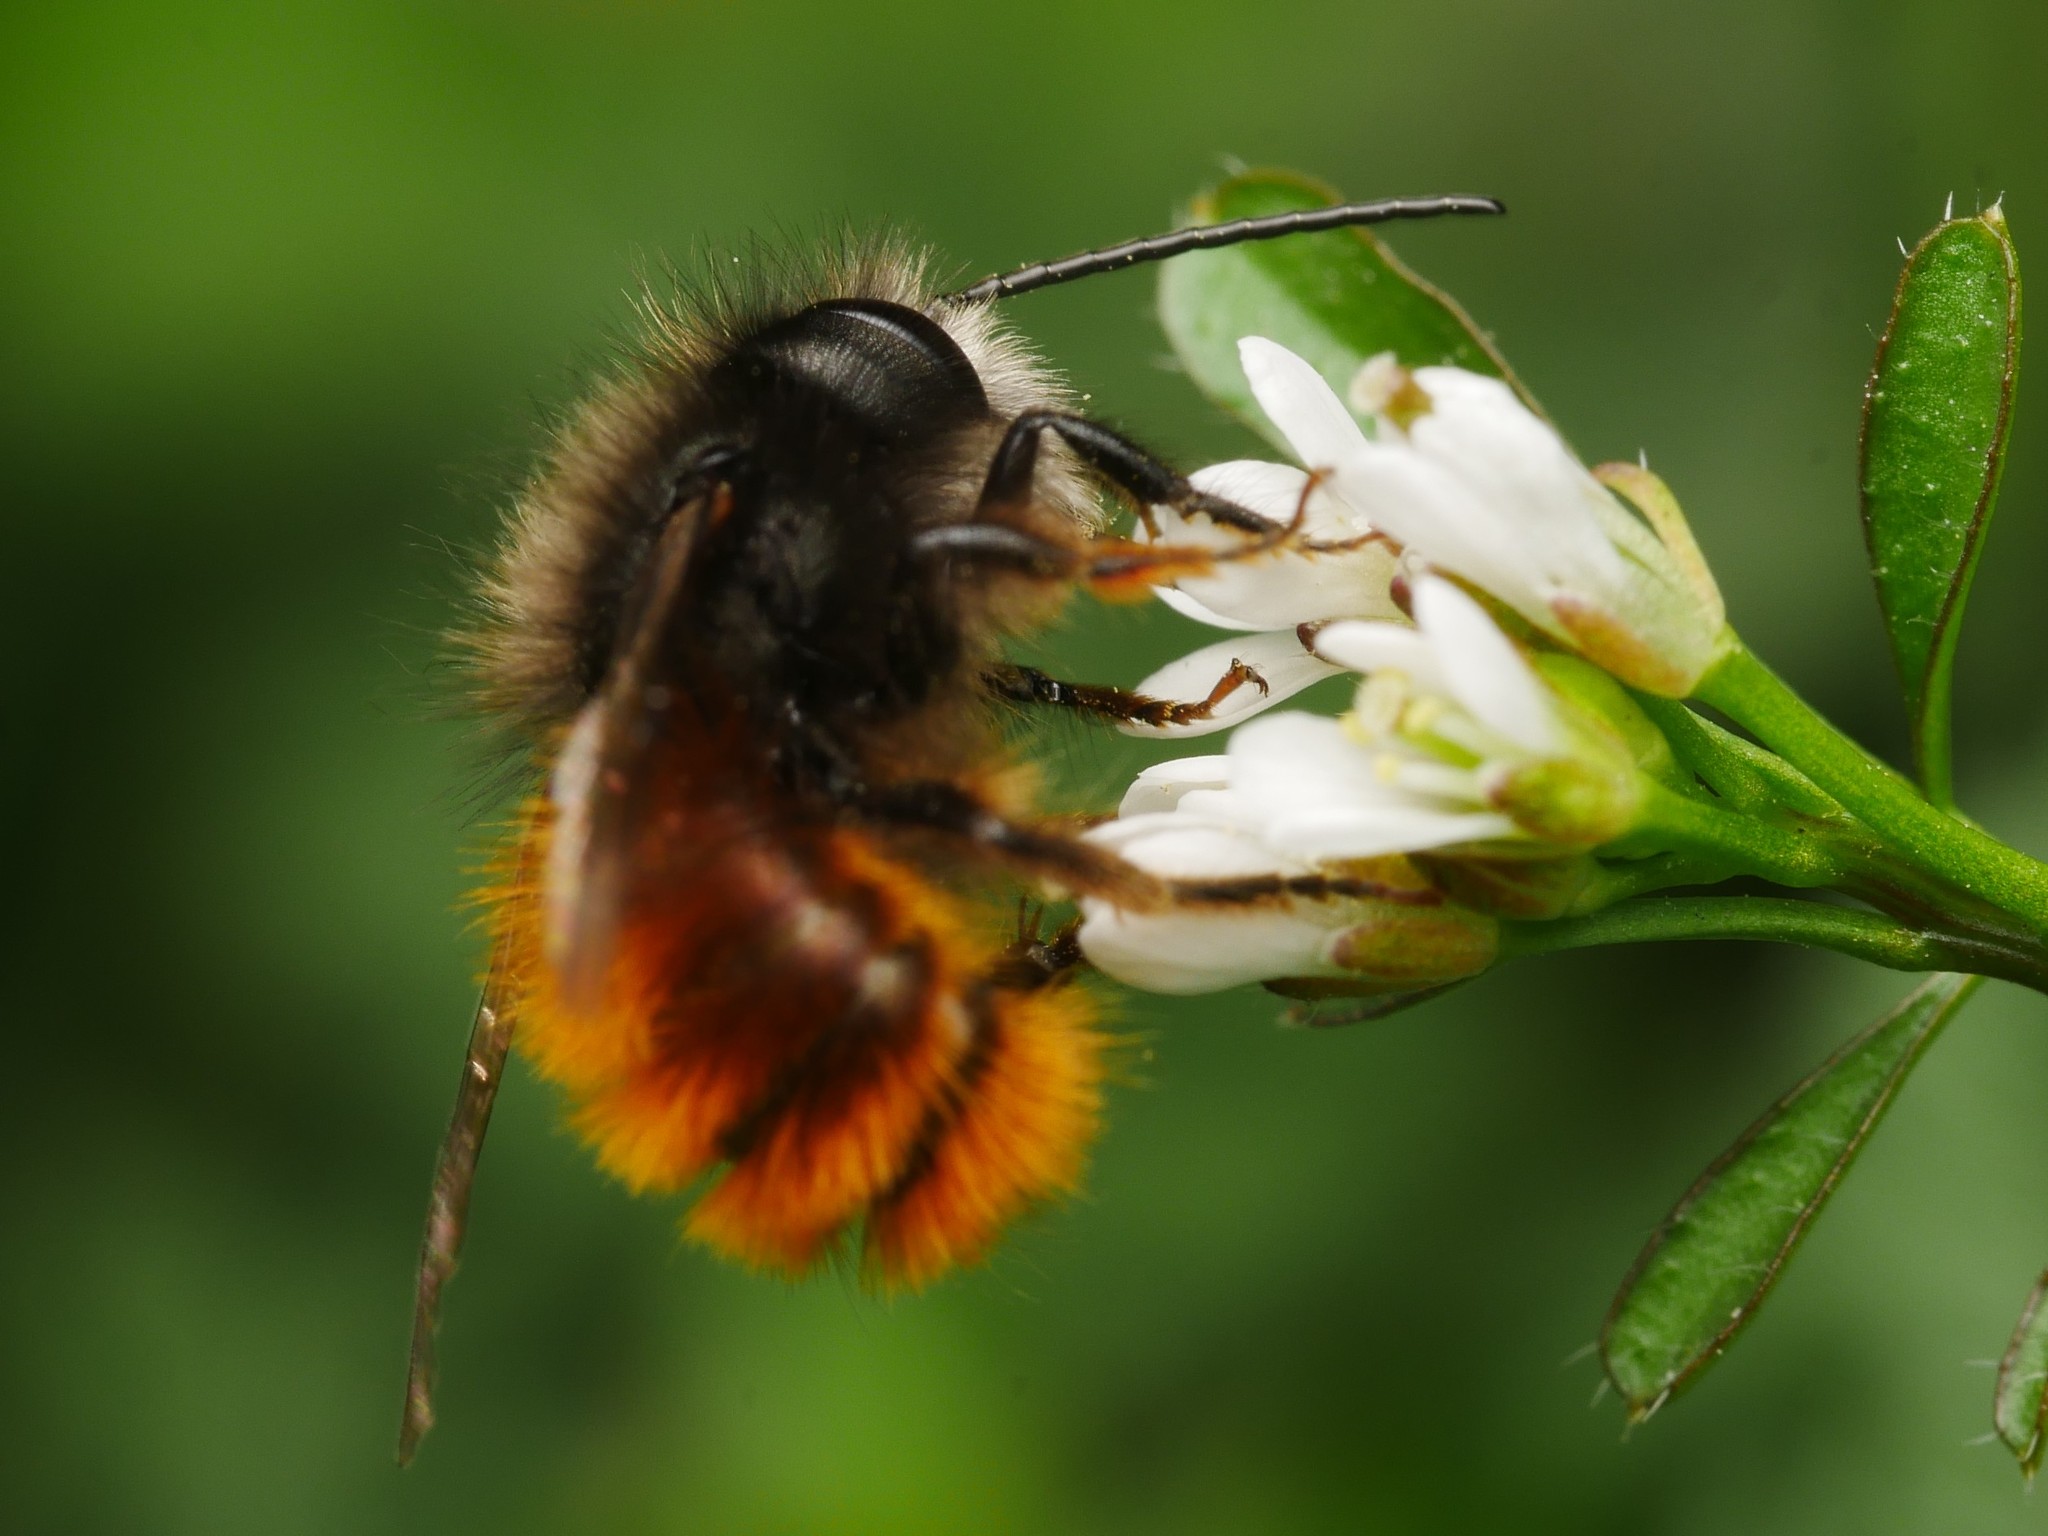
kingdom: Animalia
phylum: Arthropoda
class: Insecta
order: Hymenoptera
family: Megachilidae
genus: Osmia
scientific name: Osmia cornuta
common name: Mason bee
